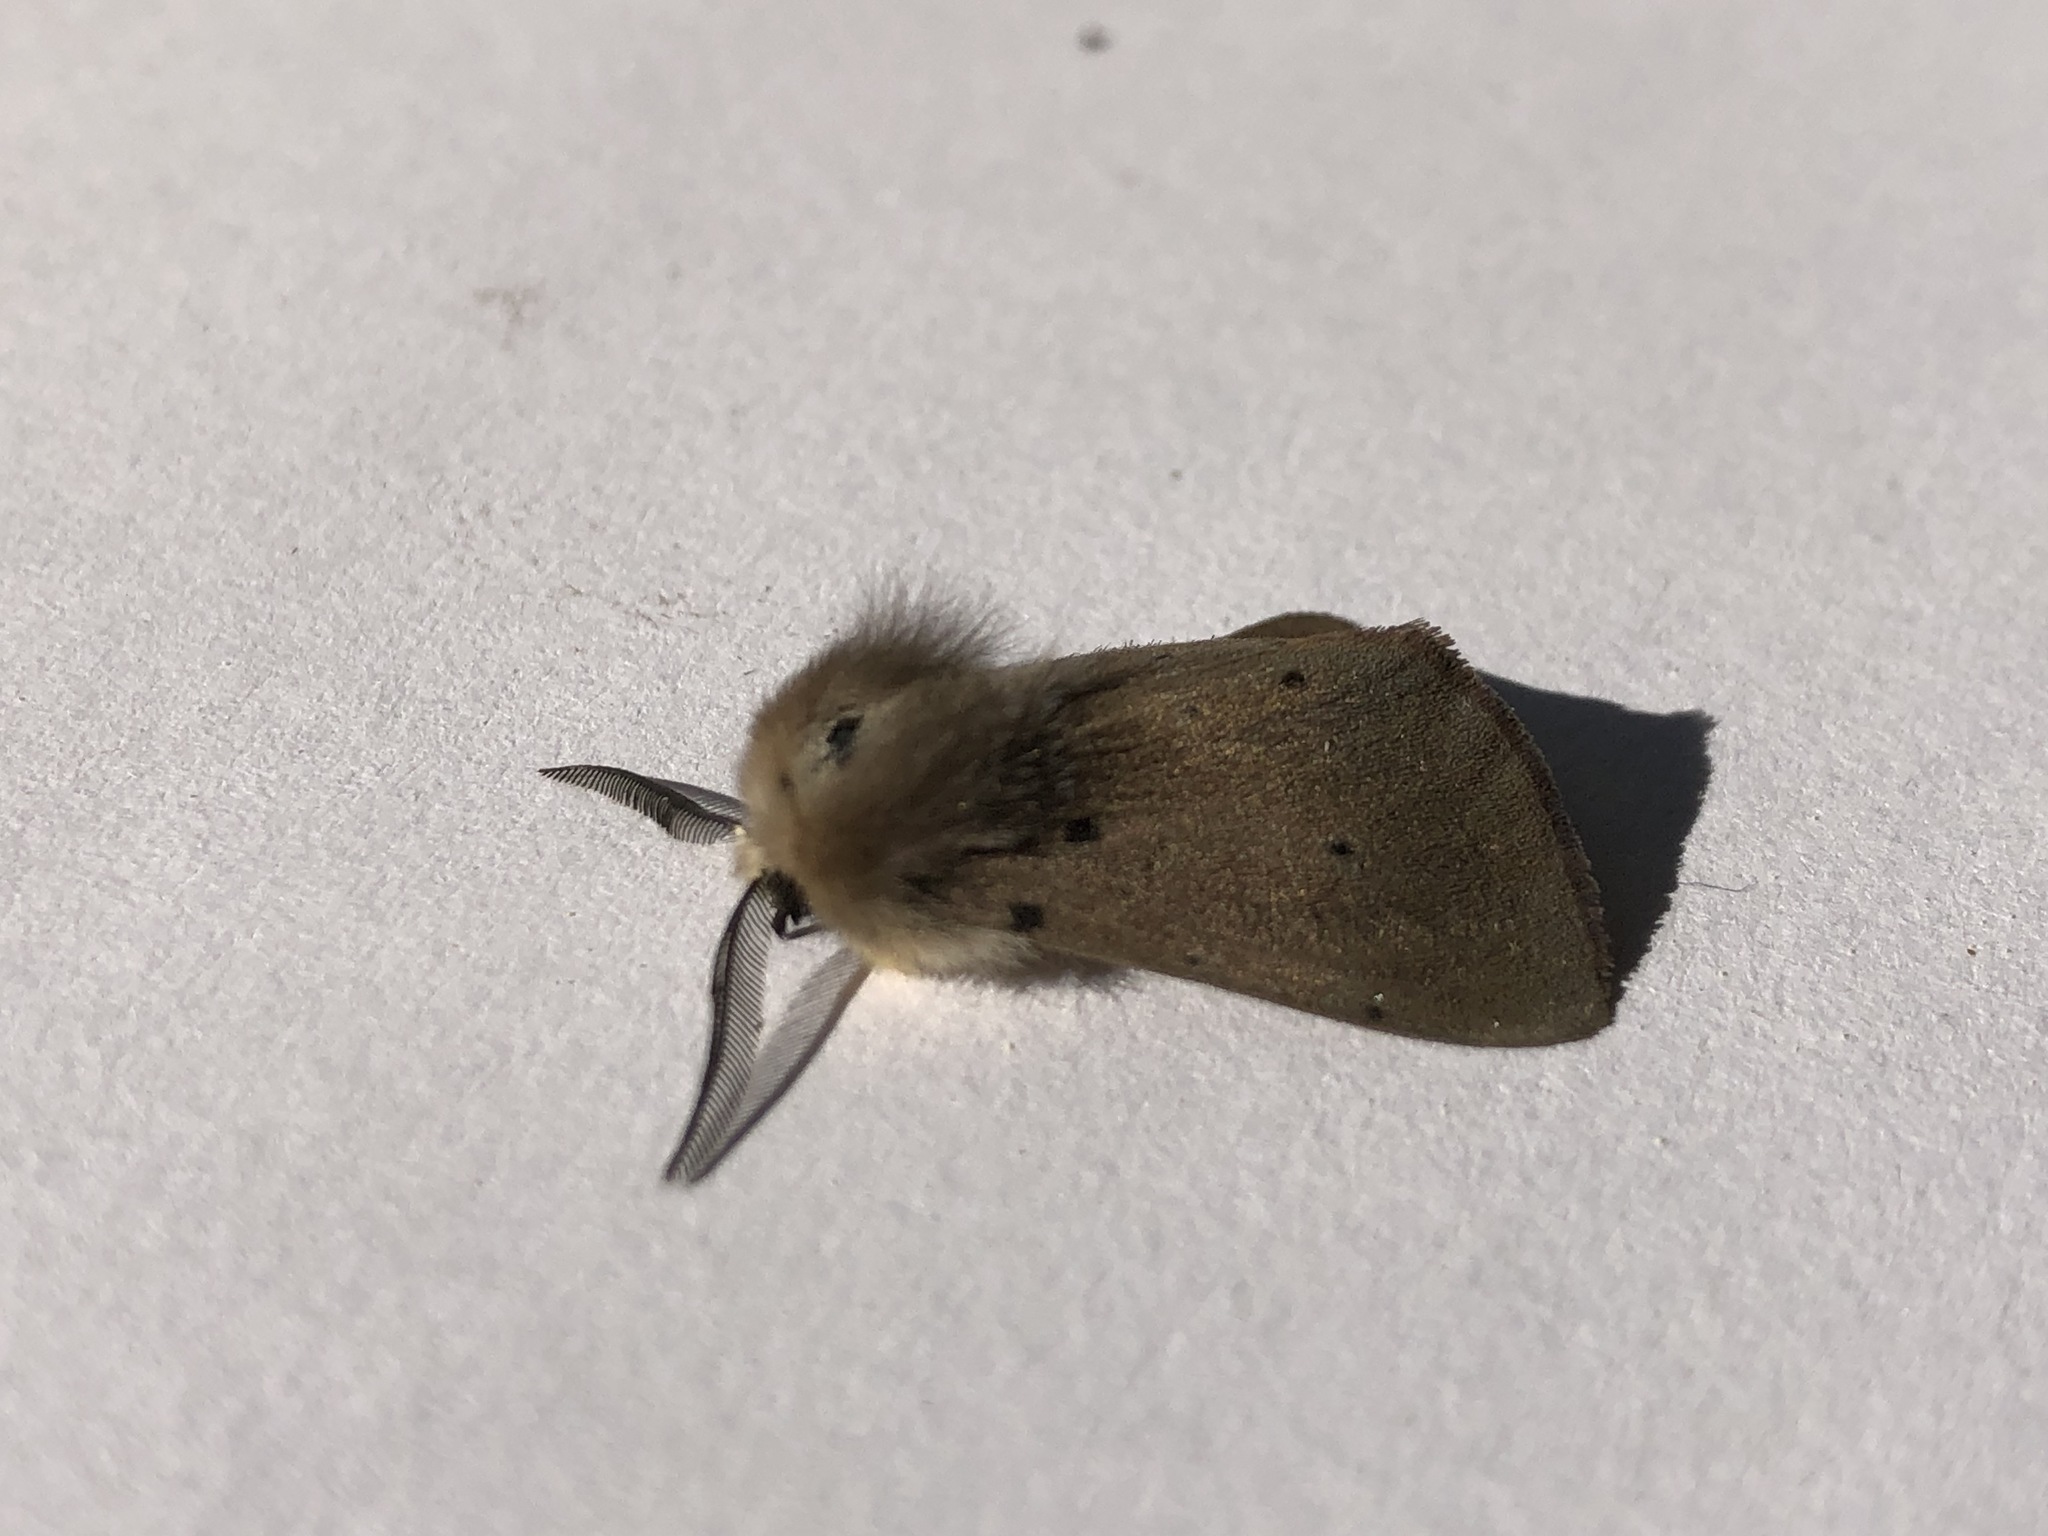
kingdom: Animalia
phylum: Arthropoda
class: Insecta
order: Lepidoptera
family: Erebidae
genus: Diaphora
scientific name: Diaphora mendica
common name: Muslin moth
